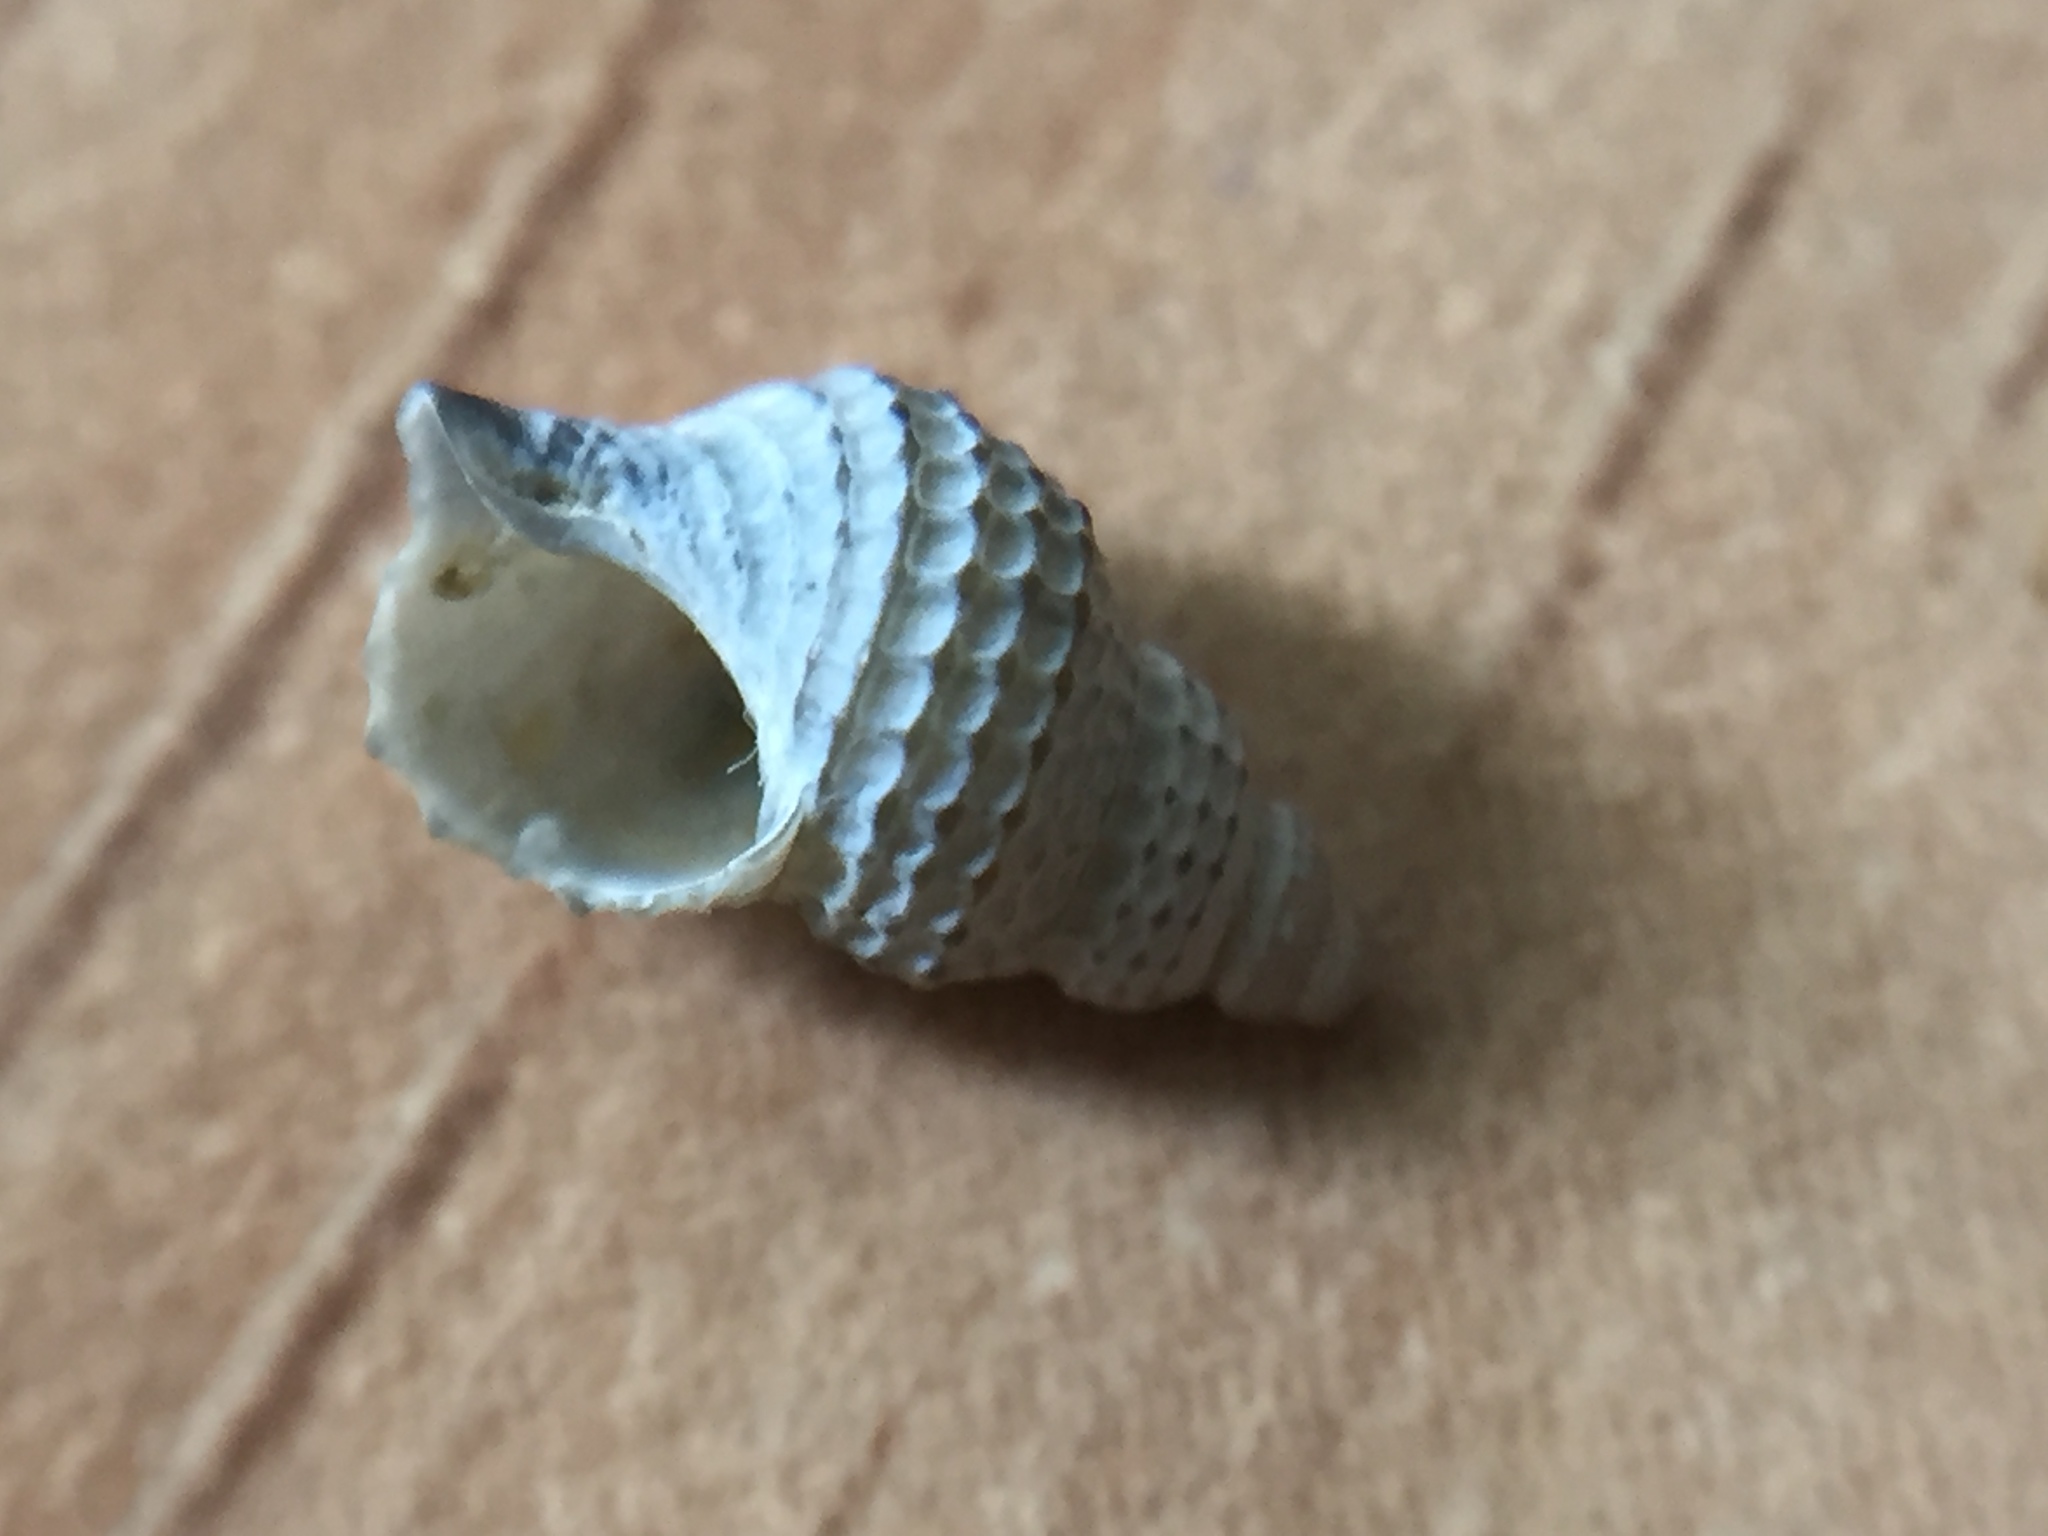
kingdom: Animalia
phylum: Mollusca
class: Gastropoda
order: Littorinimorpha
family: Capulidae
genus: Trichosirius
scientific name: Trichosirius inornatus
